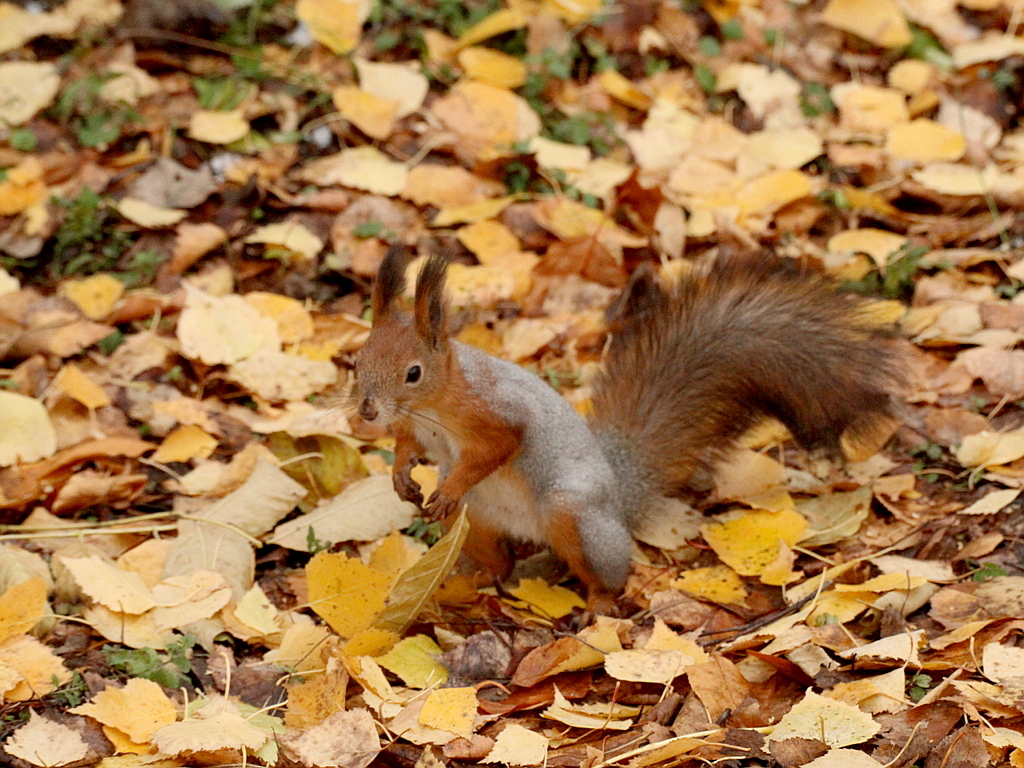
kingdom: Animalia
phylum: Chordata
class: Mammalia
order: Rodentia
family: Sciuridae
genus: Sciurus
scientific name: Sciurus vulgaris
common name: Eurasian red squirrel
